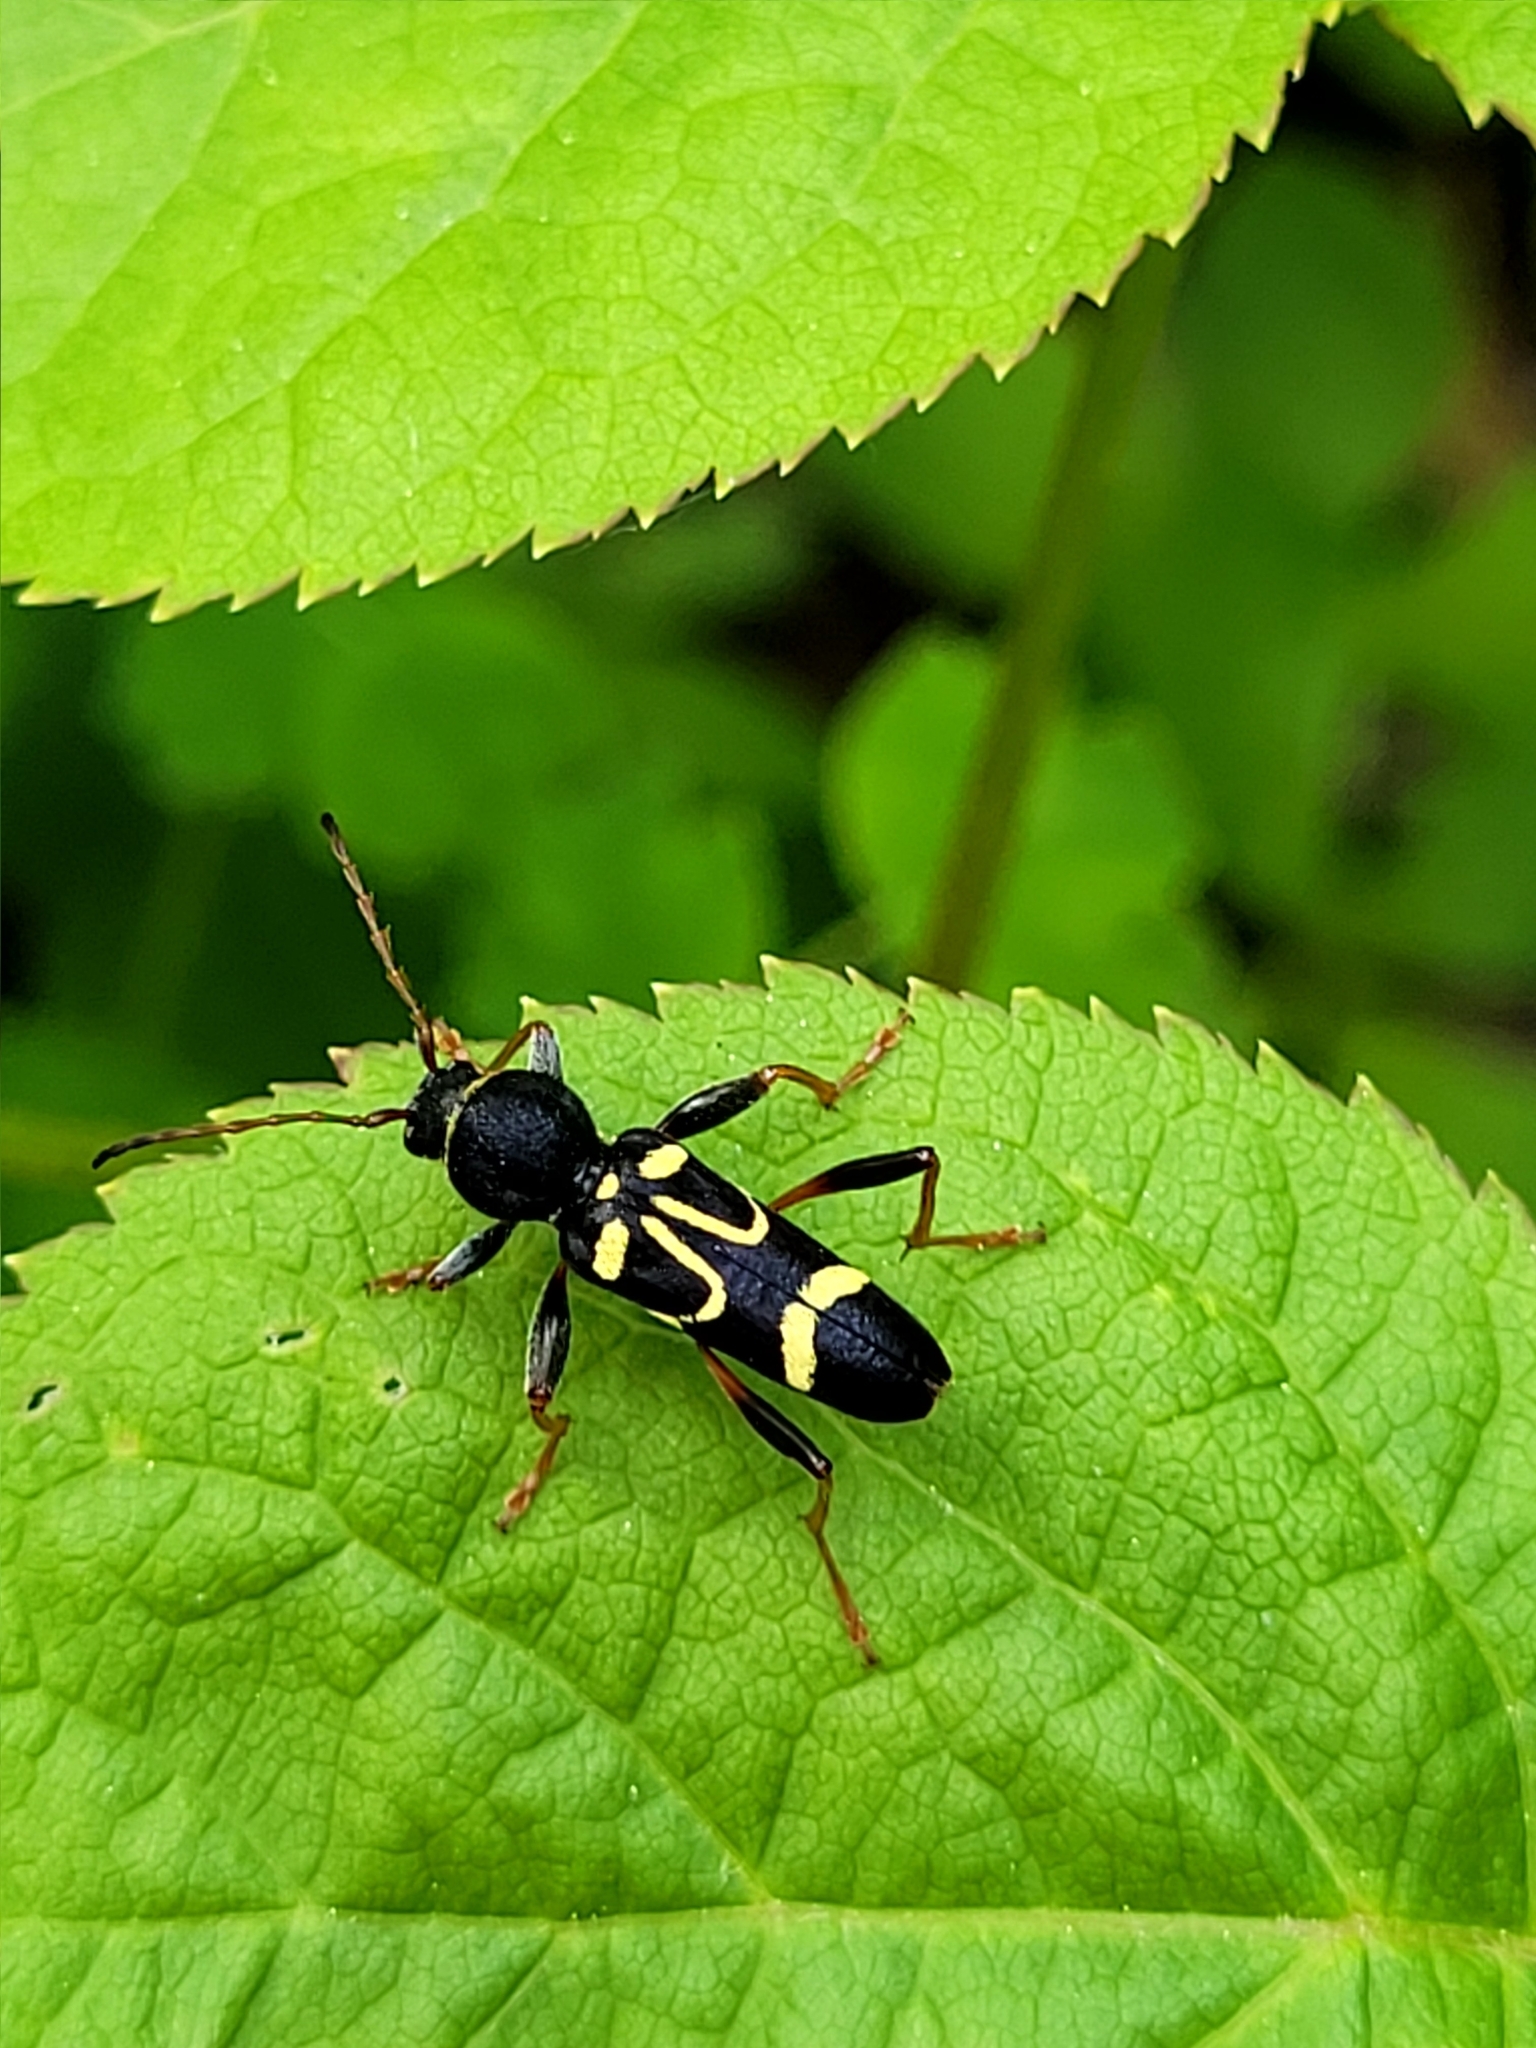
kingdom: Animalia
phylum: Arthropoda
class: Insecta
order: Coleoptera
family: Cerambycidae
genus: Clytus
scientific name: Clytus ruricola
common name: Round-necked longhorn beetle
